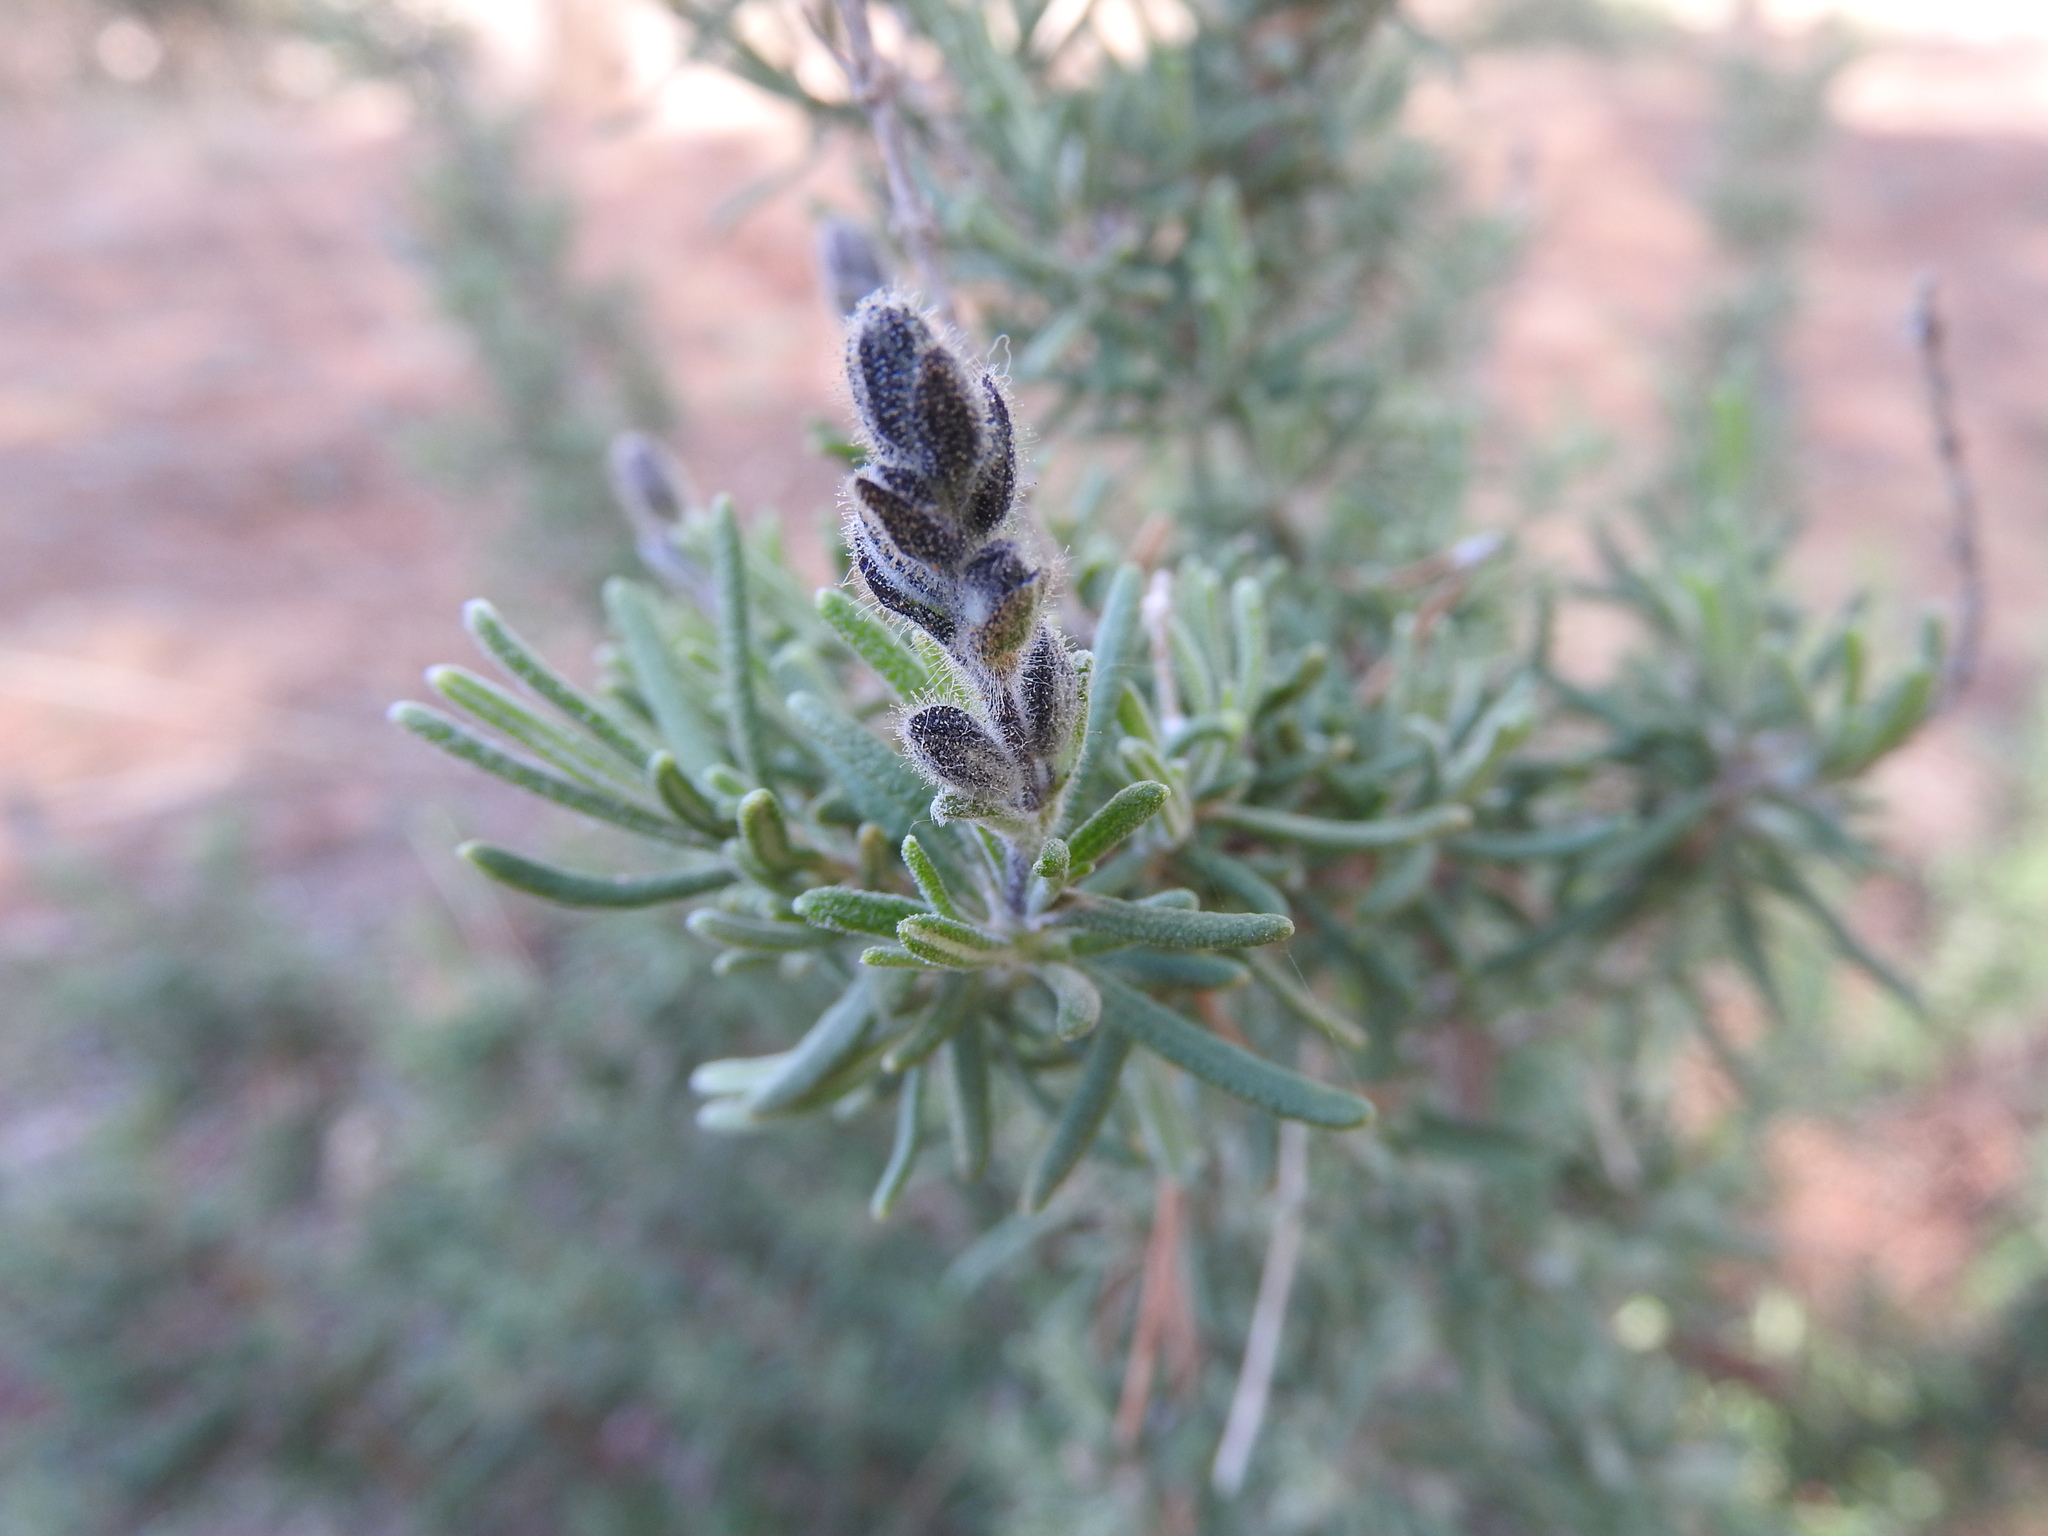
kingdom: Plantae
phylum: Tracheophyta
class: Magnoliopsida
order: Lamiales
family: Lamiaceae
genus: Salvia
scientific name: Salvia jordanii
